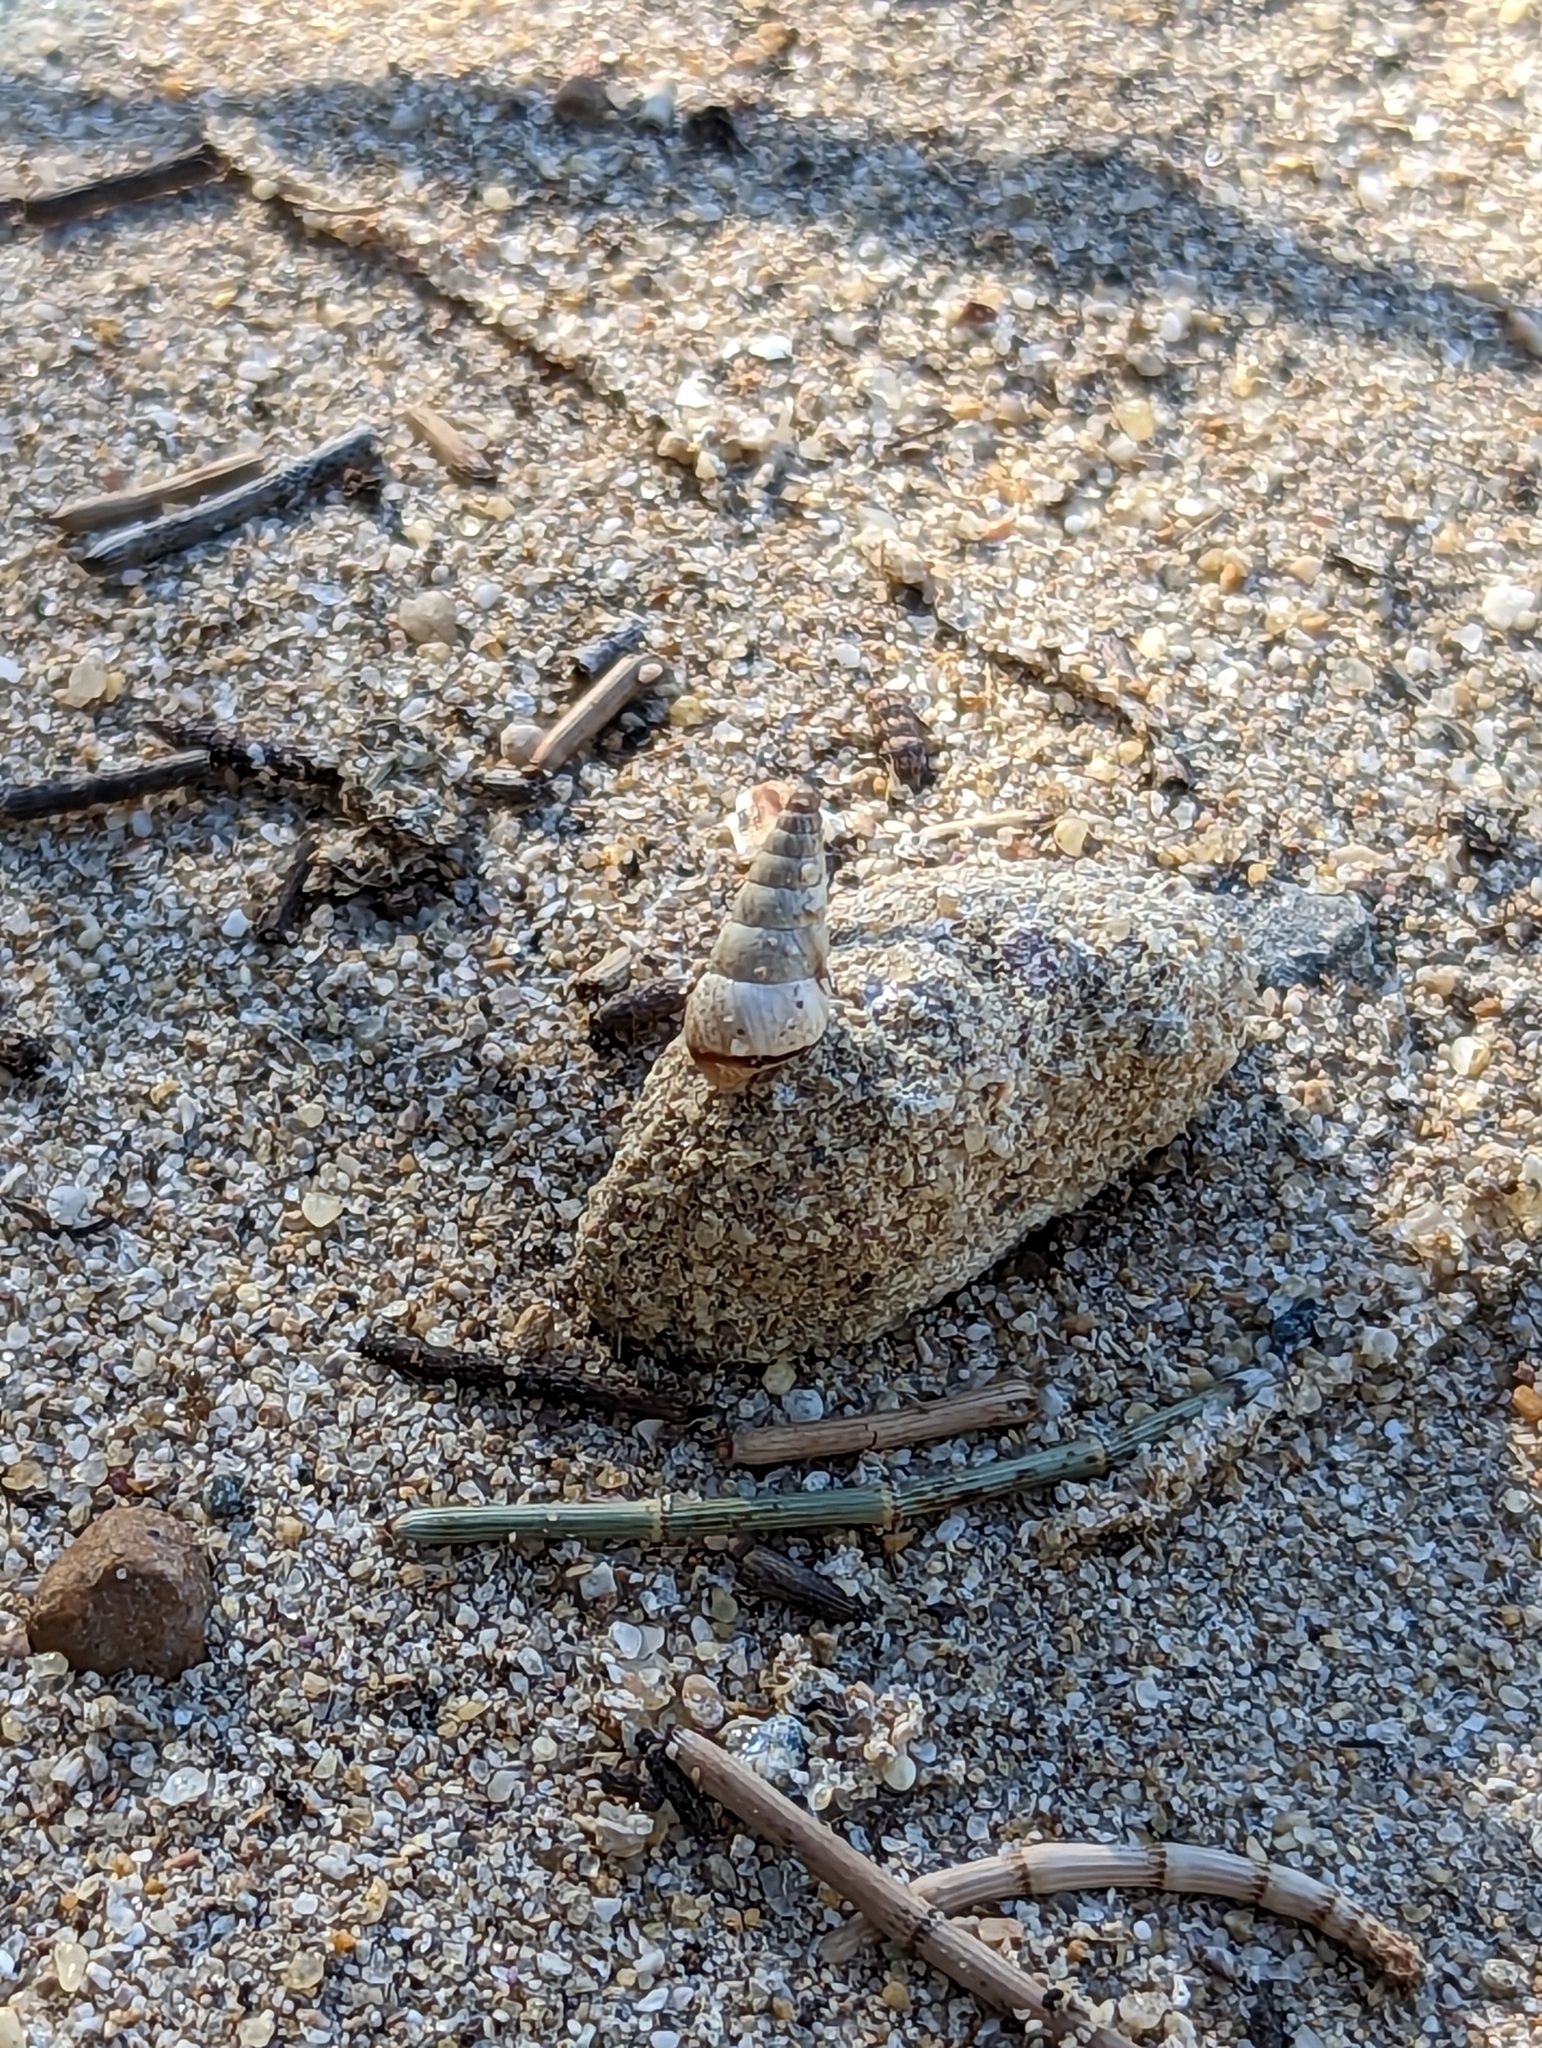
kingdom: Animalia
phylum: Mollusca
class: Gastropoda
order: Stylommatophora
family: Geomitridae
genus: Cochlicella
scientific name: Cochlicella acuta
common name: Pointed snail
